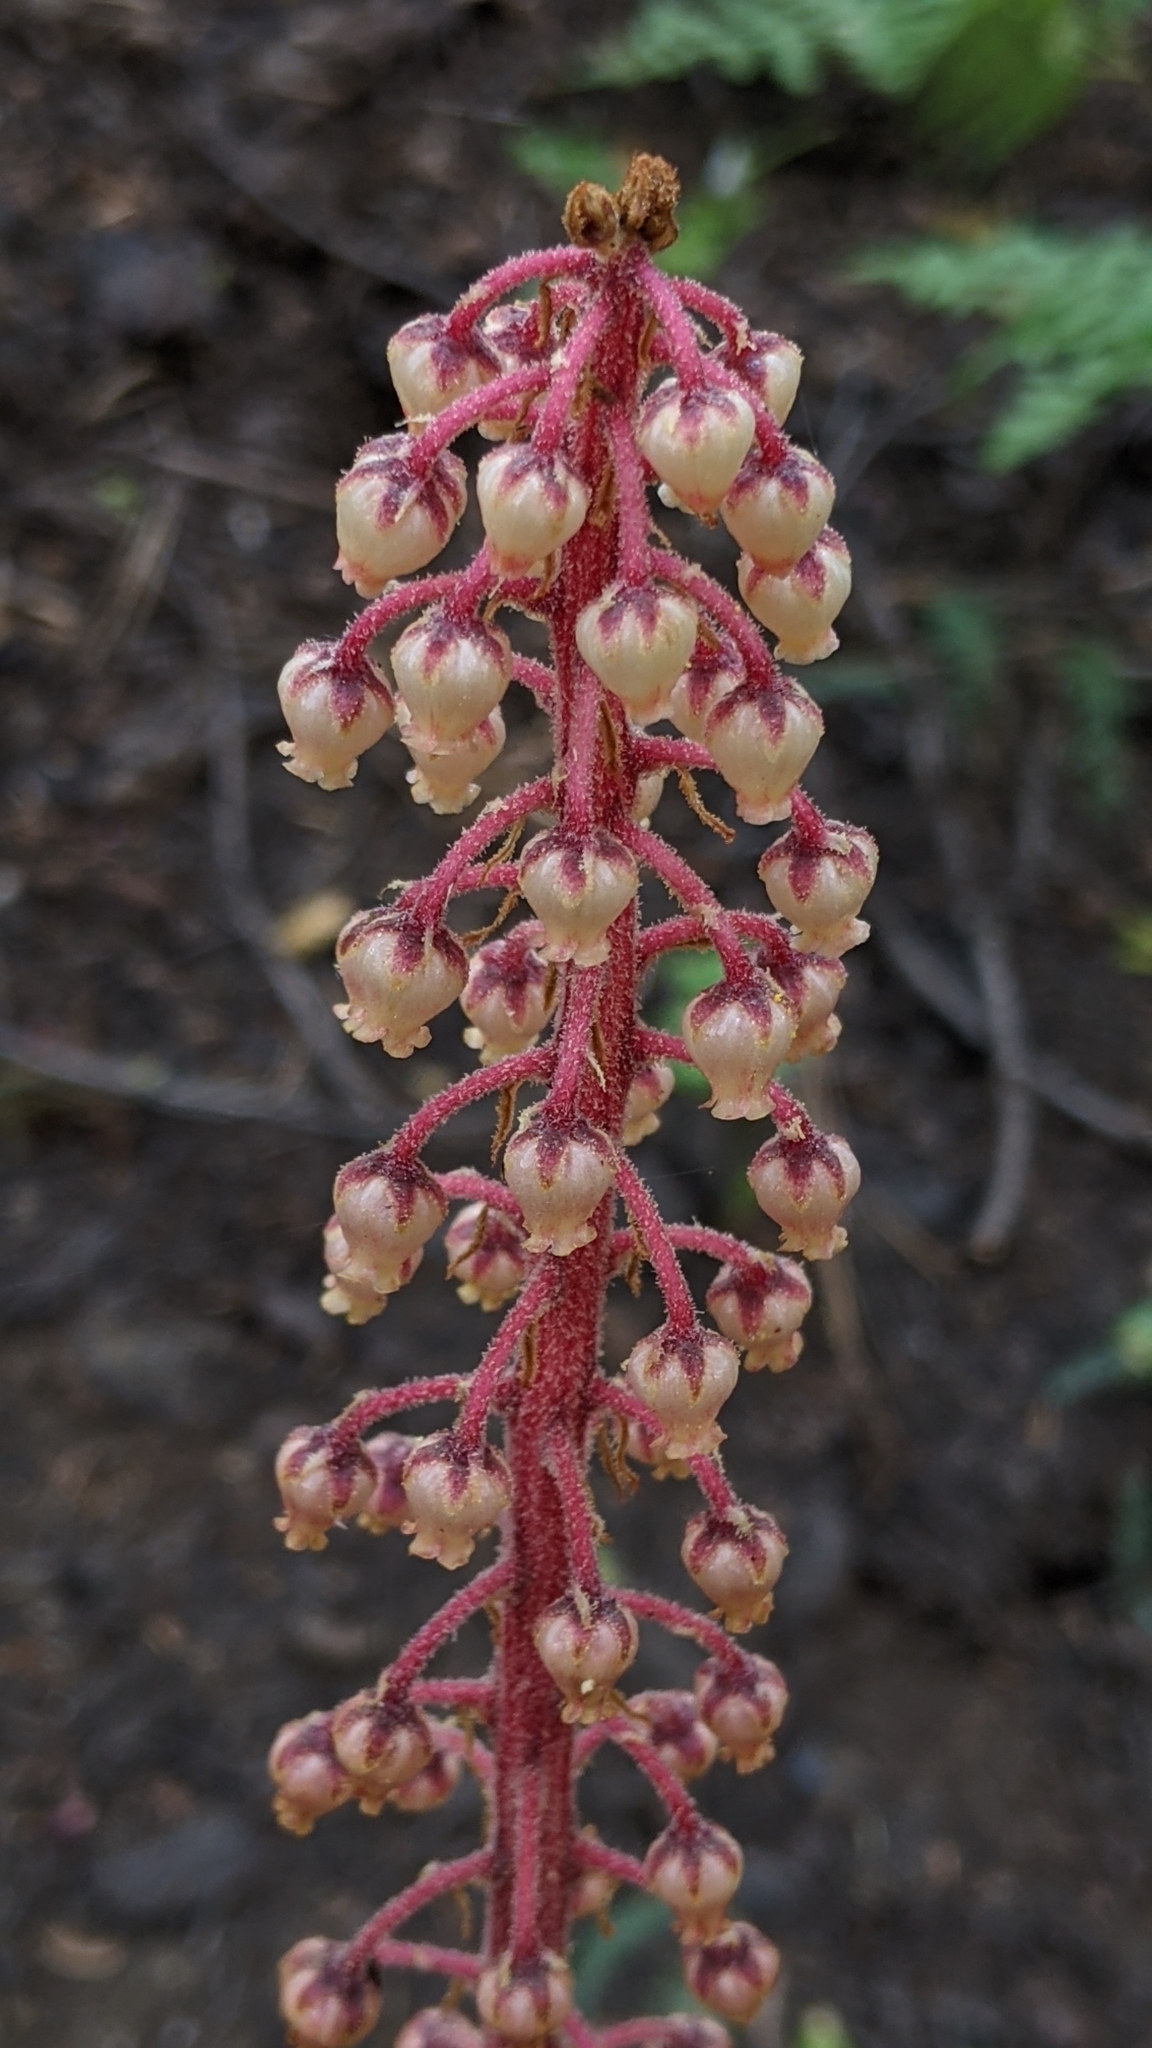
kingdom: Plantae
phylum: Tracheophyta
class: Magnoliopsida
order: Ericales
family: Ericaceae
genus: Pterospora
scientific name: Pterospora andromedea
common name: Giant bird's-nest
